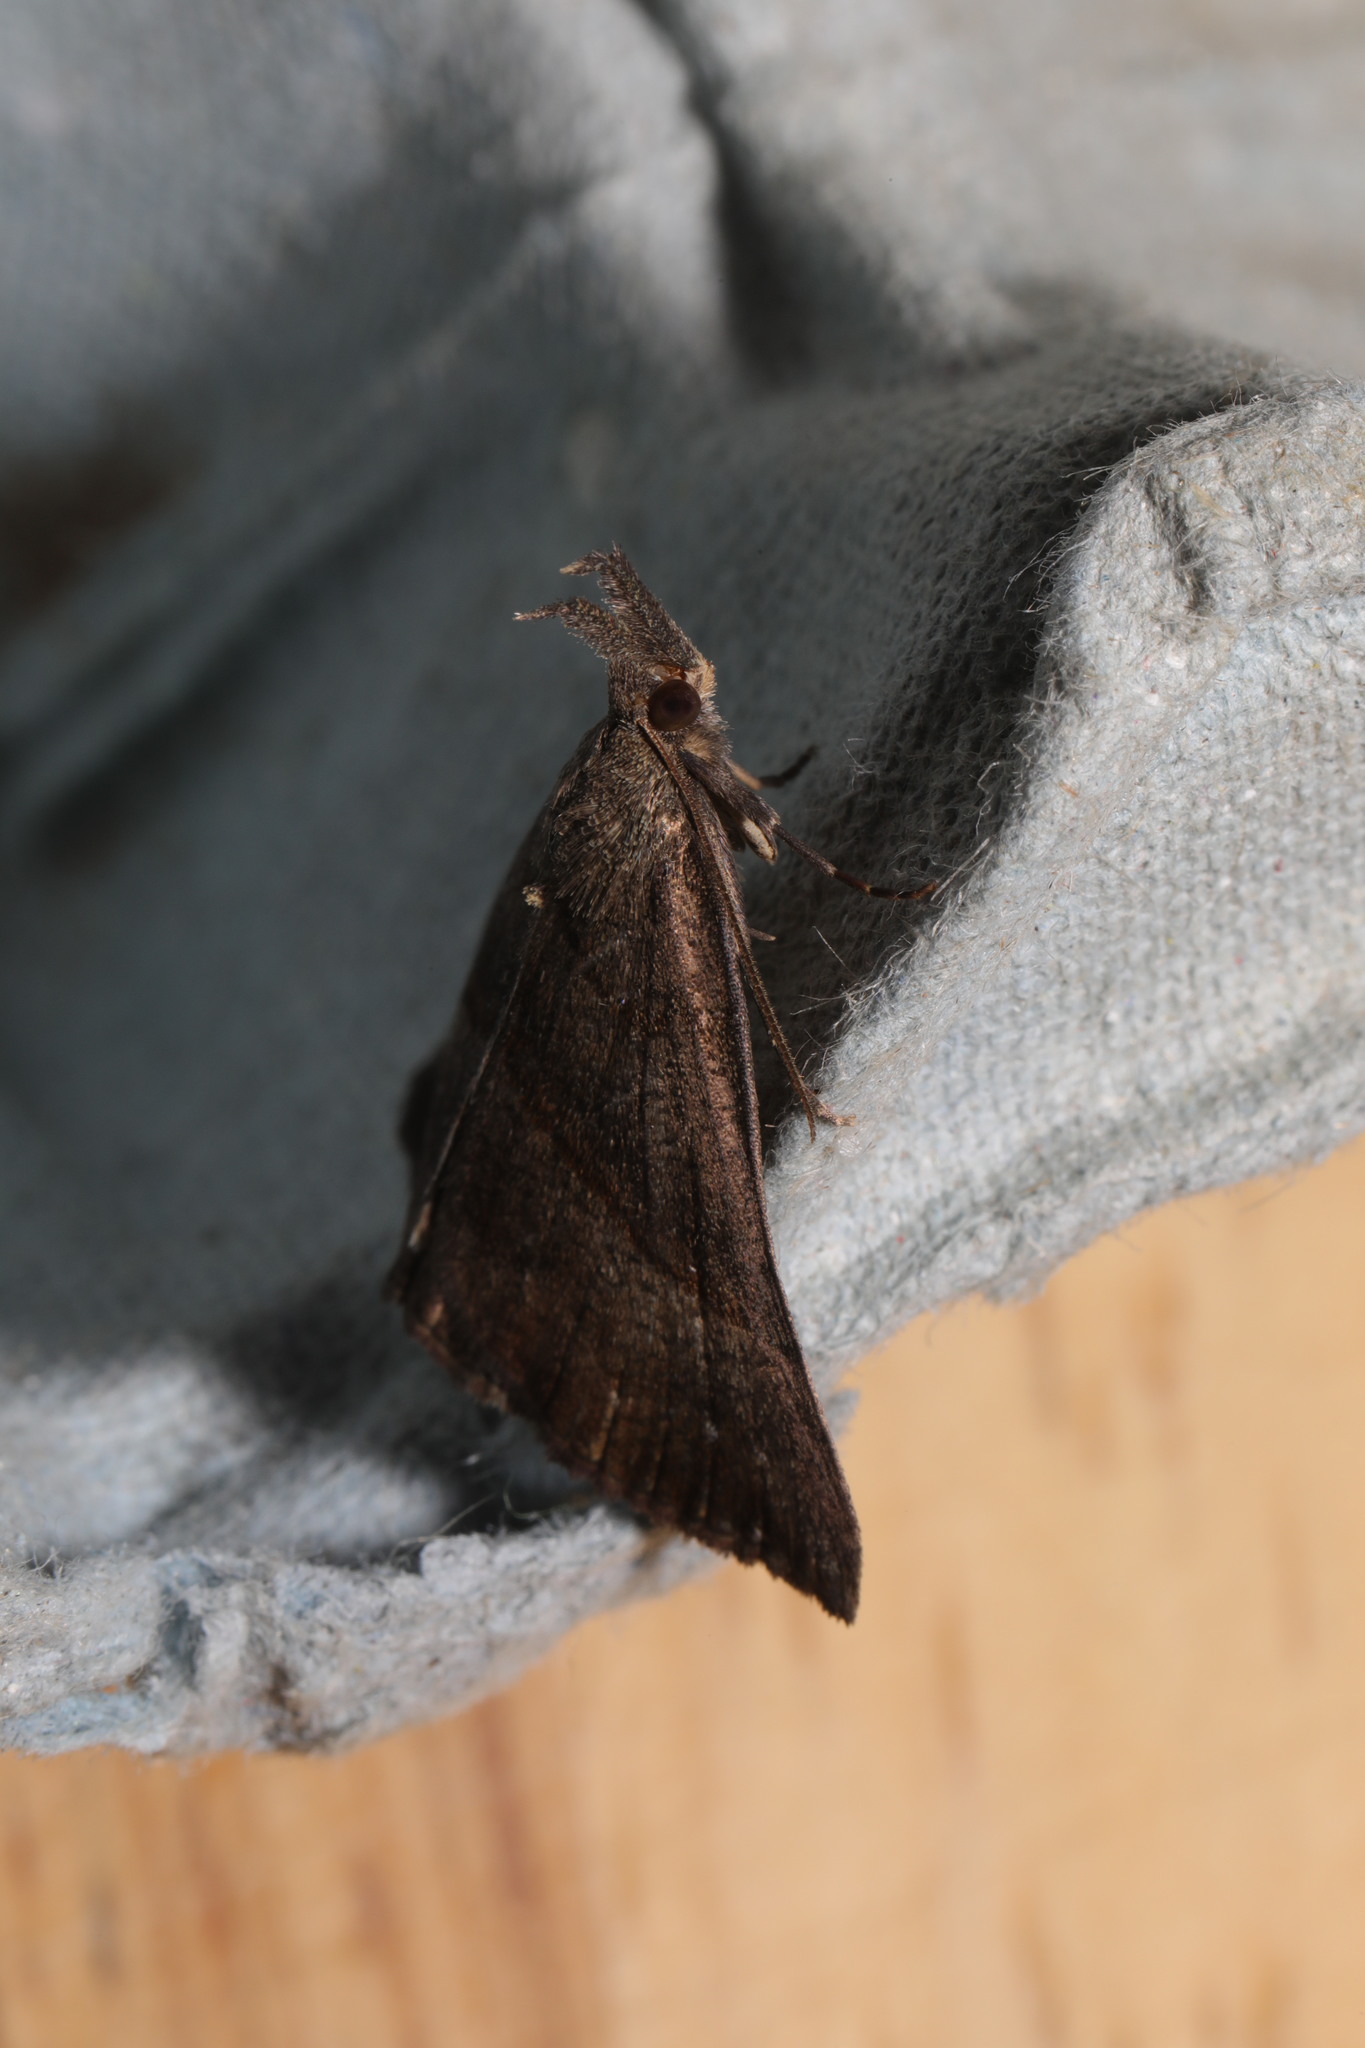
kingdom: Animalia
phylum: Arthropoda
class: Insecta
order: Lepidoptera
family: Erebidae
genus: Hypena
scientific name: Hypena proboscidalis
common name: Snout
